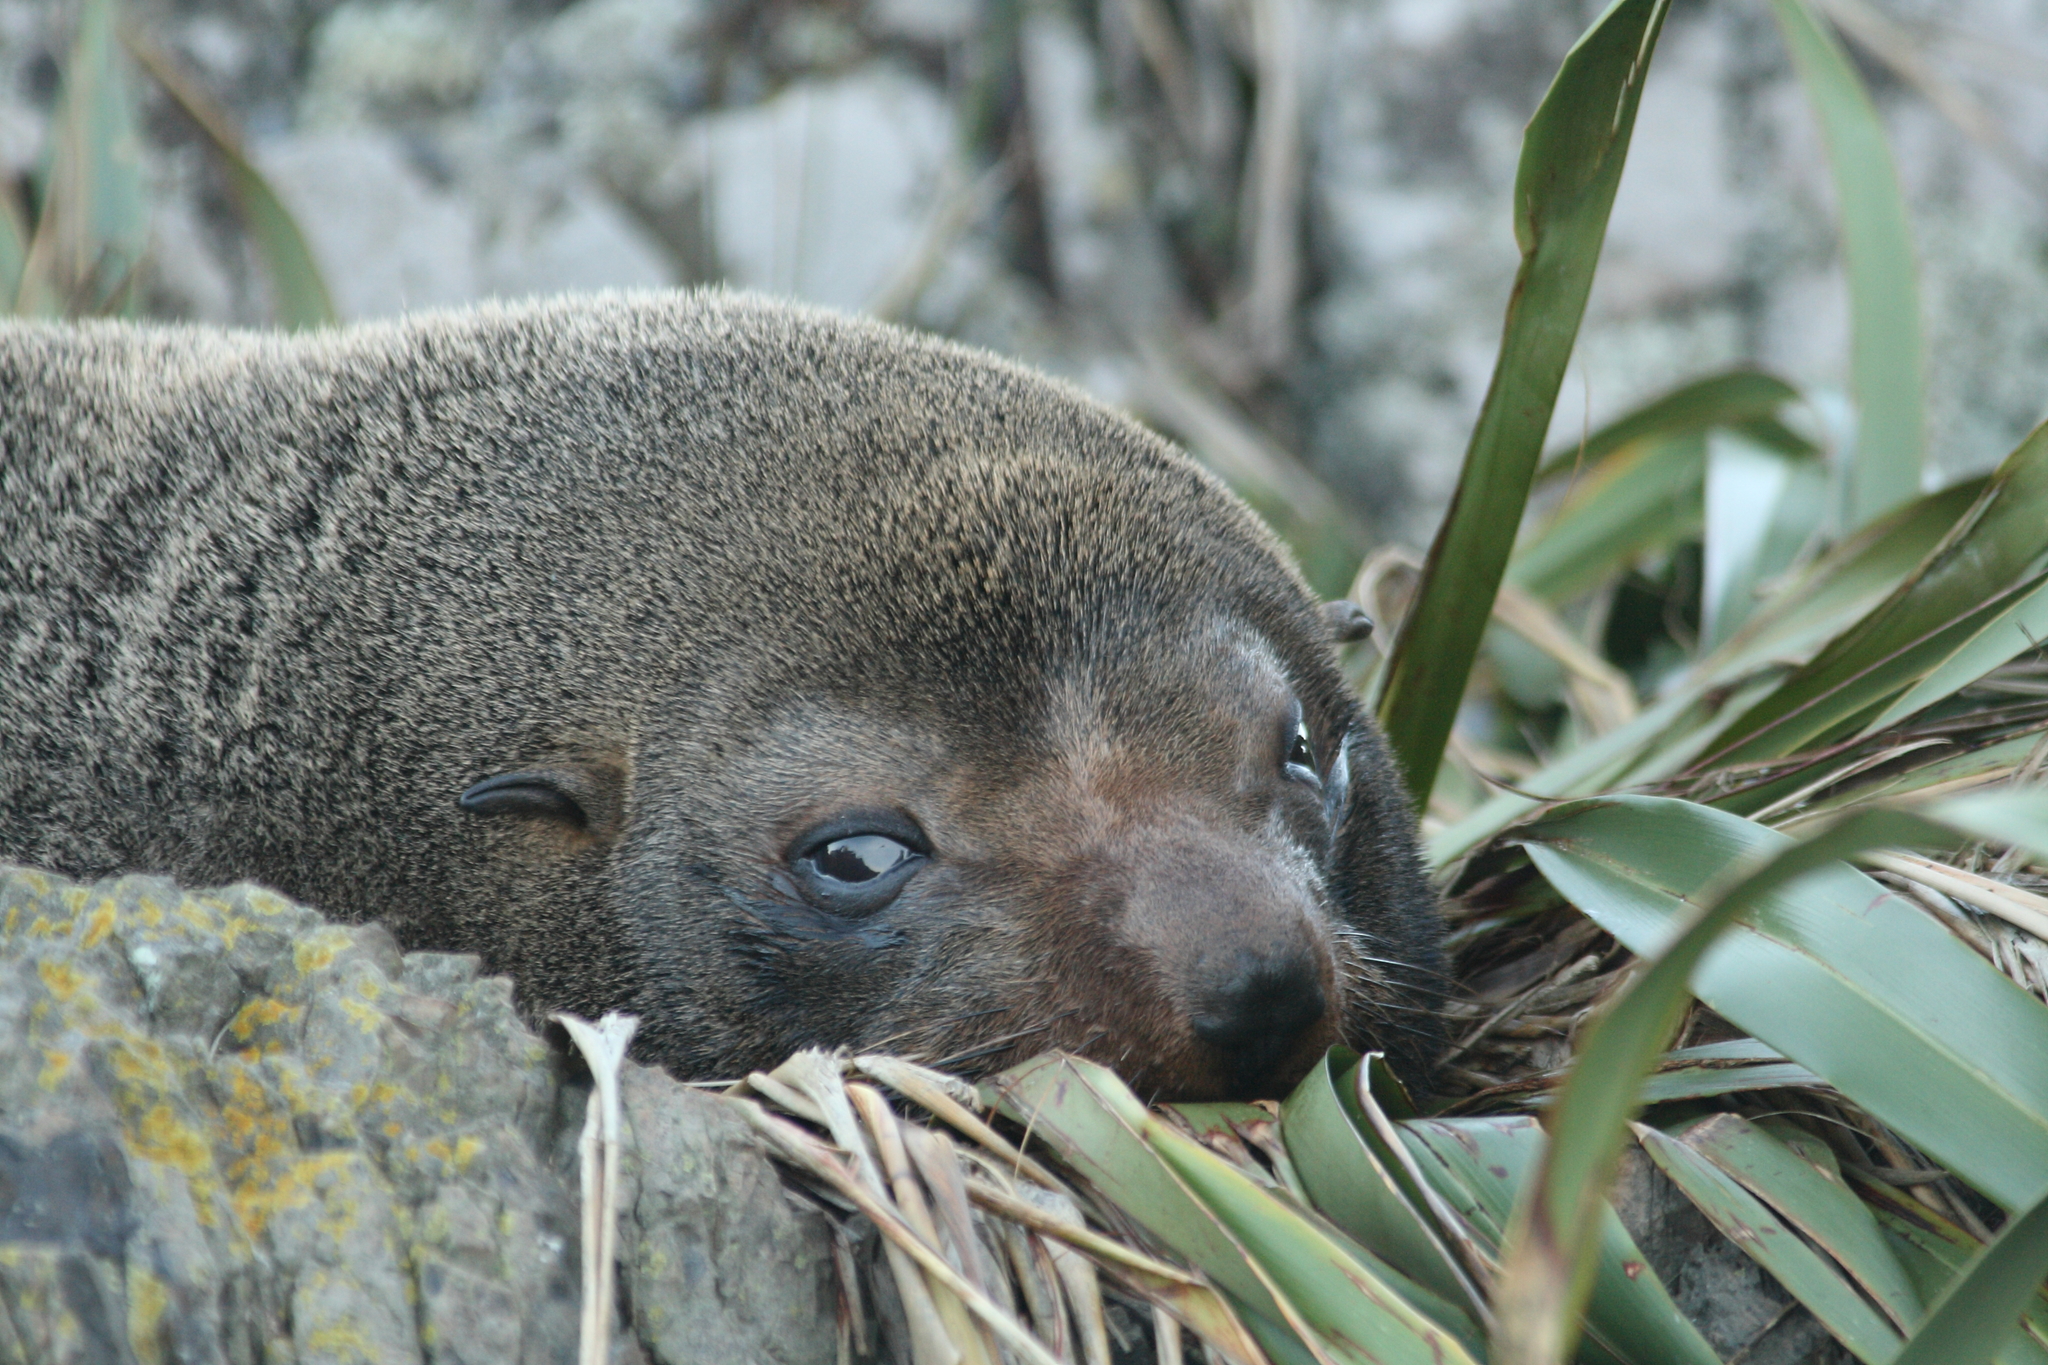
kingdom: Animalia
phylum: Chordata
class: Mammalia
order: Carnivora
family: Otariidae
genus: Arctocephalus
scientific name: Arctocephalus forsteri
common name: New zealand fur seal
